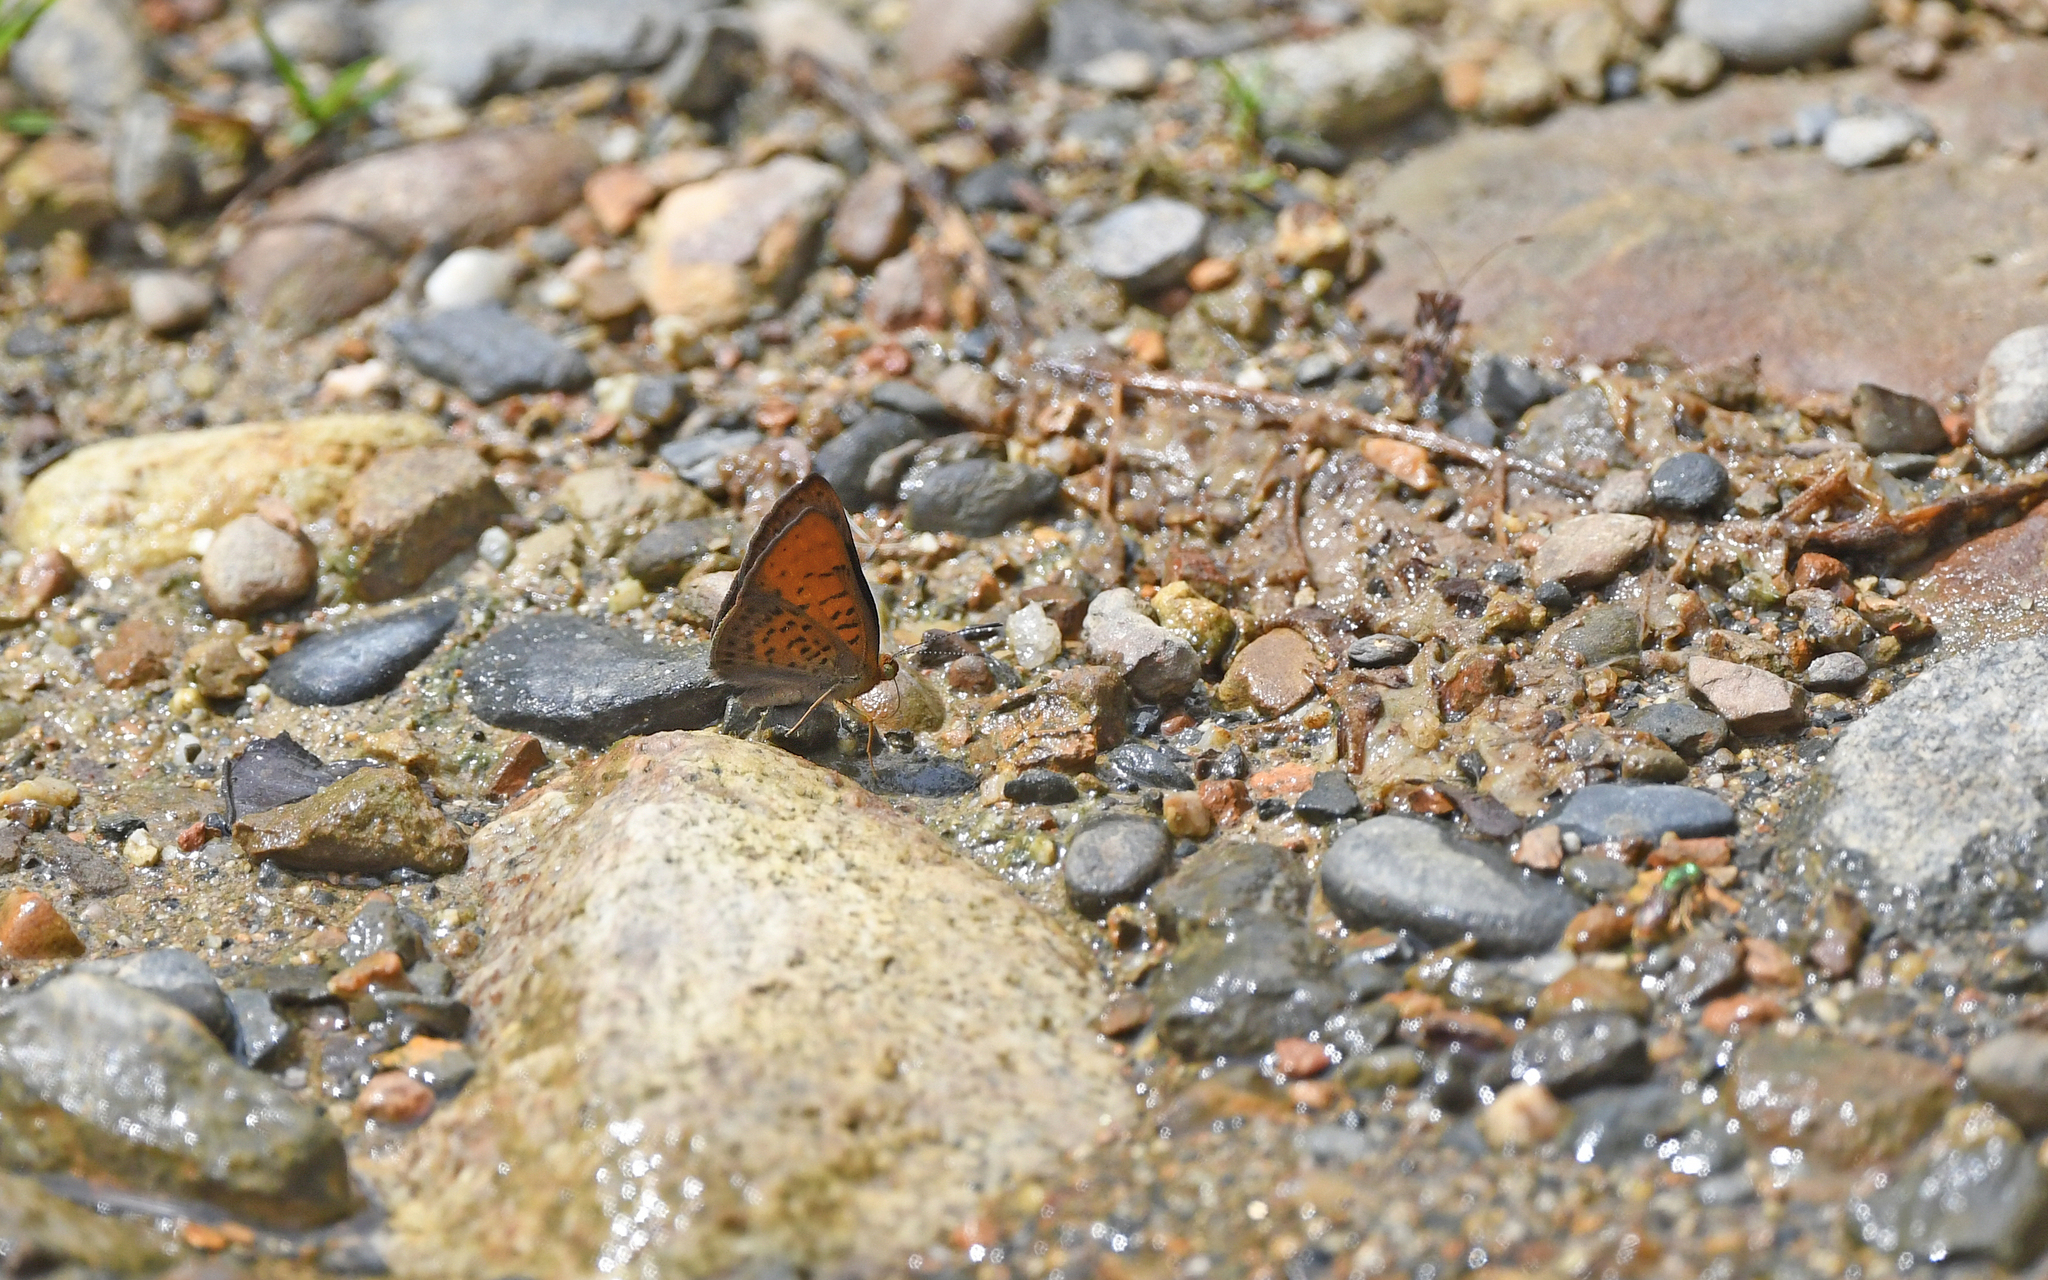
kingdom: Animalia
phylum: Arthropoda
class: Insecta
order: Lepidoptera
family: Lycaenidae
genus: Emesis
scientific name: Emesis temesa
